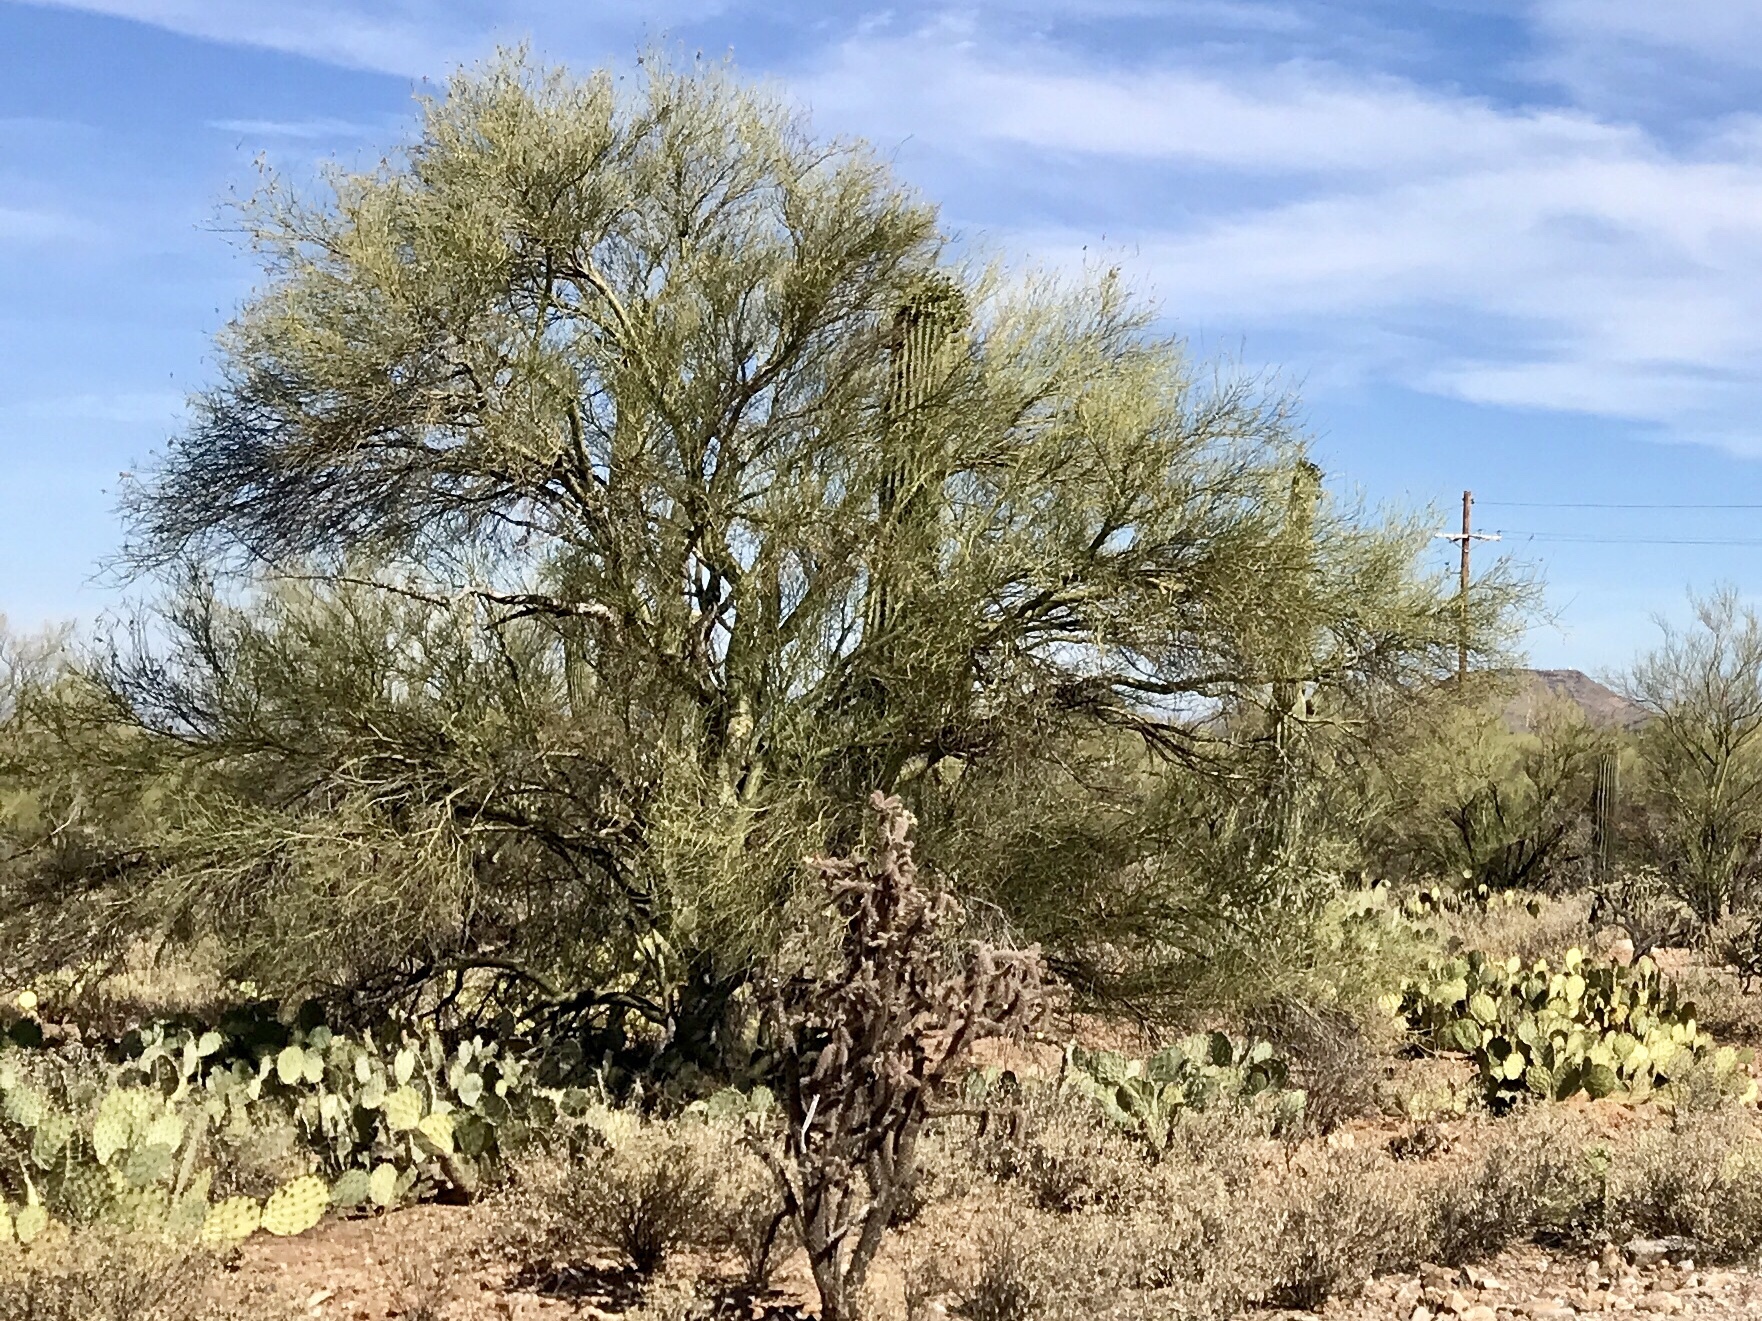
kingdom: Plantae
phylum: Tracheophyta
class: Magnoliopsida
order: Fabales
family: Fabaceae
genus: Parkinsonia
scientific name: Parkinsonia microphylla
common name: Yellow paloverde
